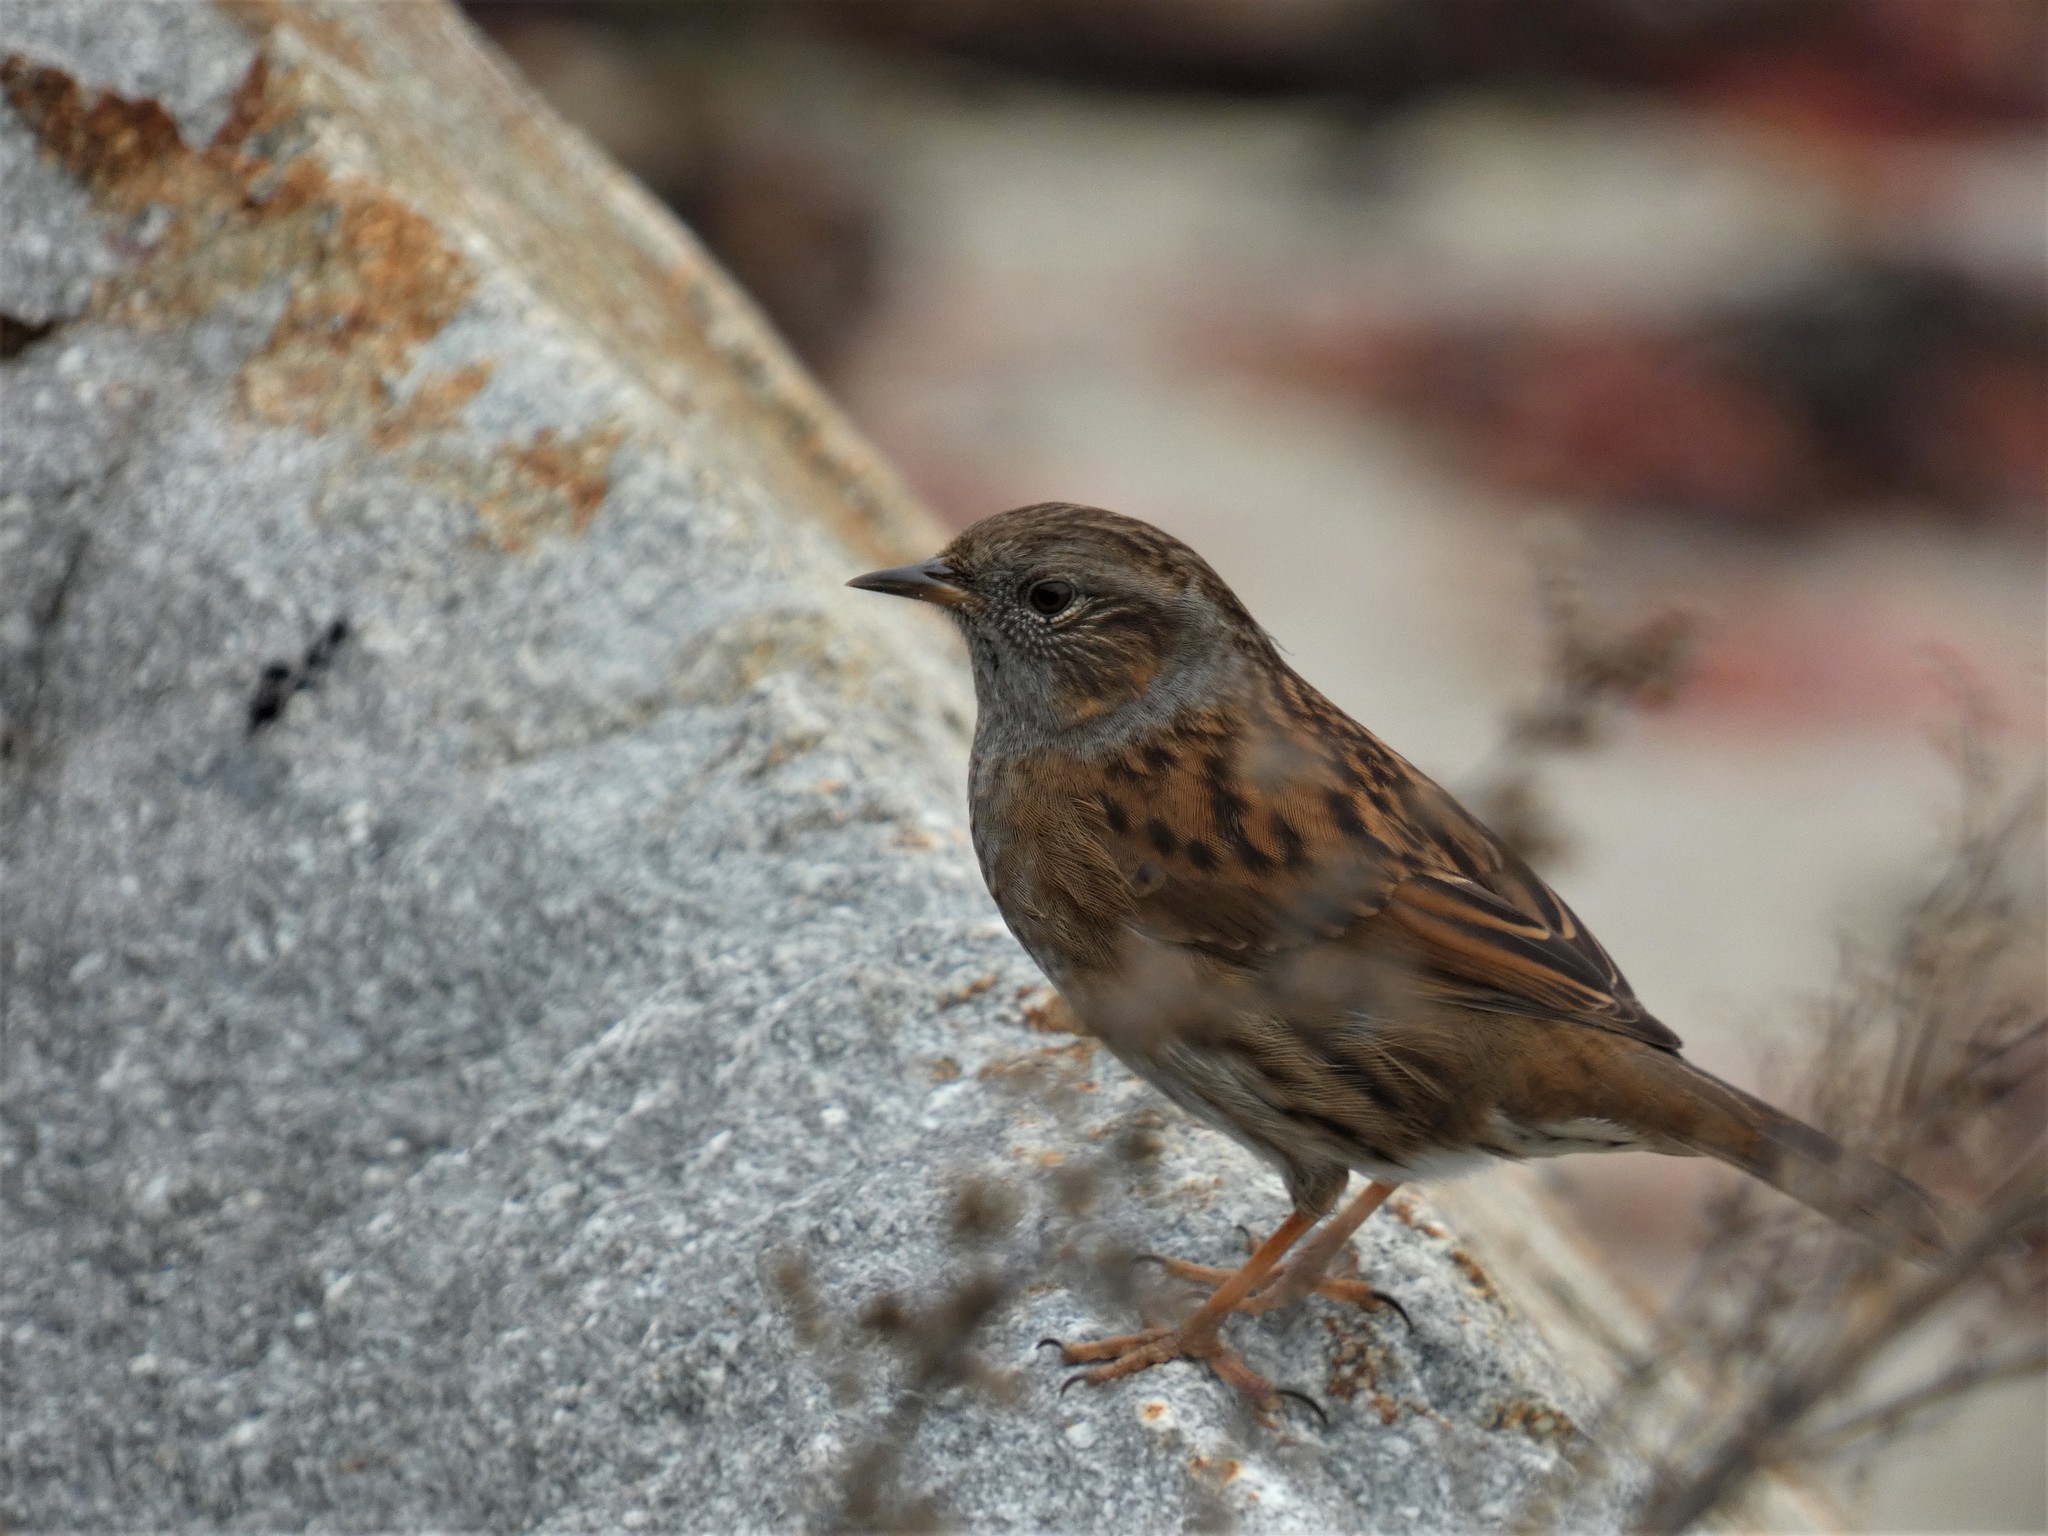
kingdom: Animalia
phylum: Chordata
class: Aves
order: Passeriformes
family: Prunellidae
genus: Prunella
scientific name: Prunella modularis
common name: Dunnock
